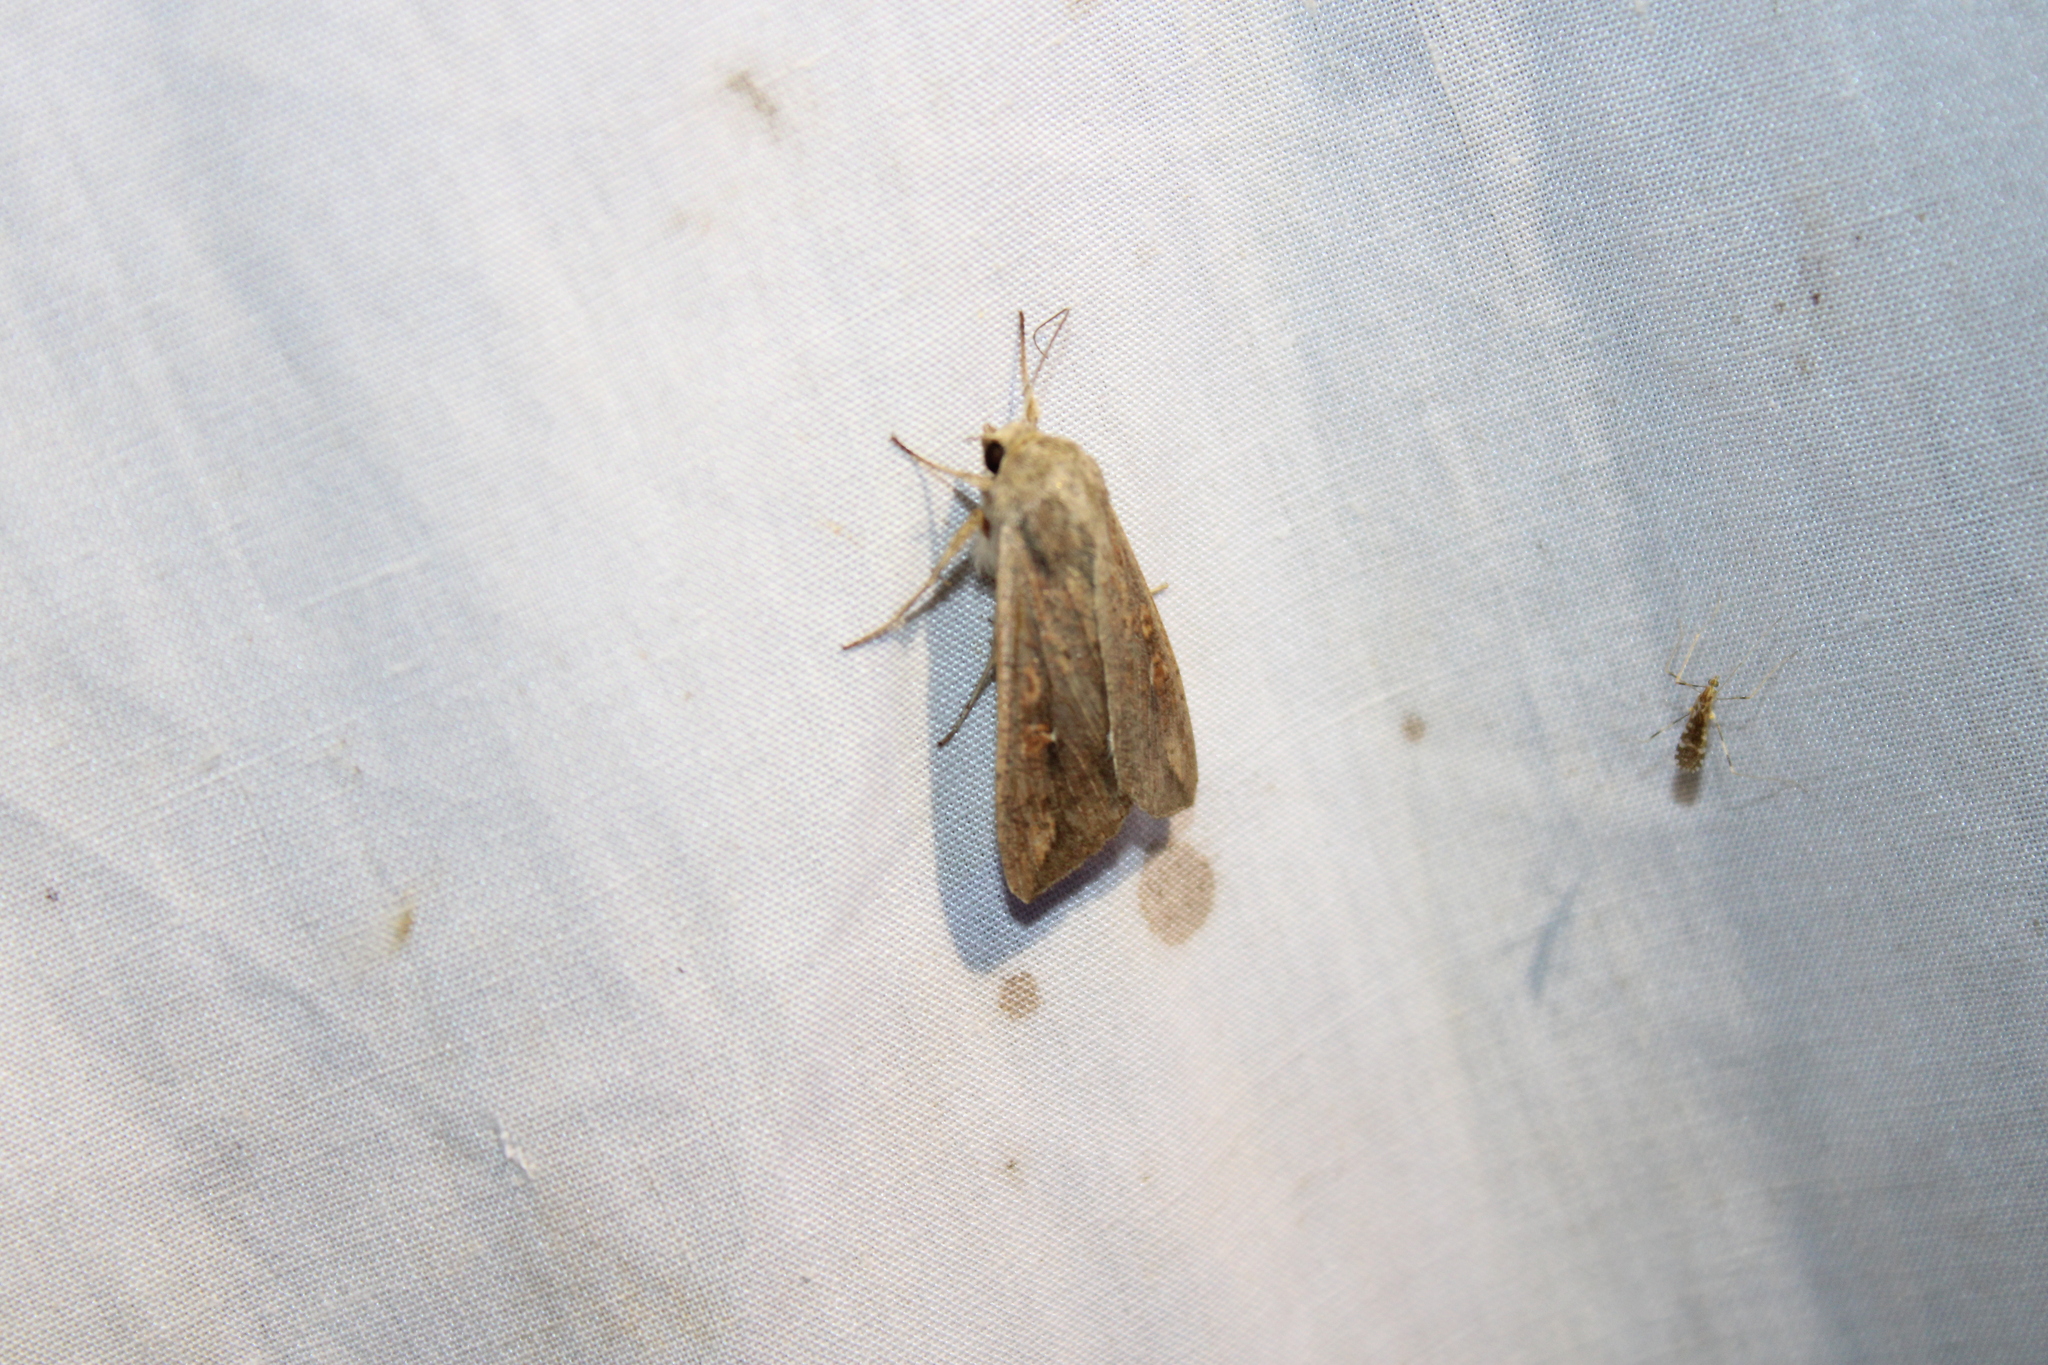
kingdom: Animalia
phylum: Arthropoda
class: Insecta
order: Lepidoptera
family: Noctuidae
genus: Mythimna
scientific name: Mythimna unipuncta
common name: White-speck
